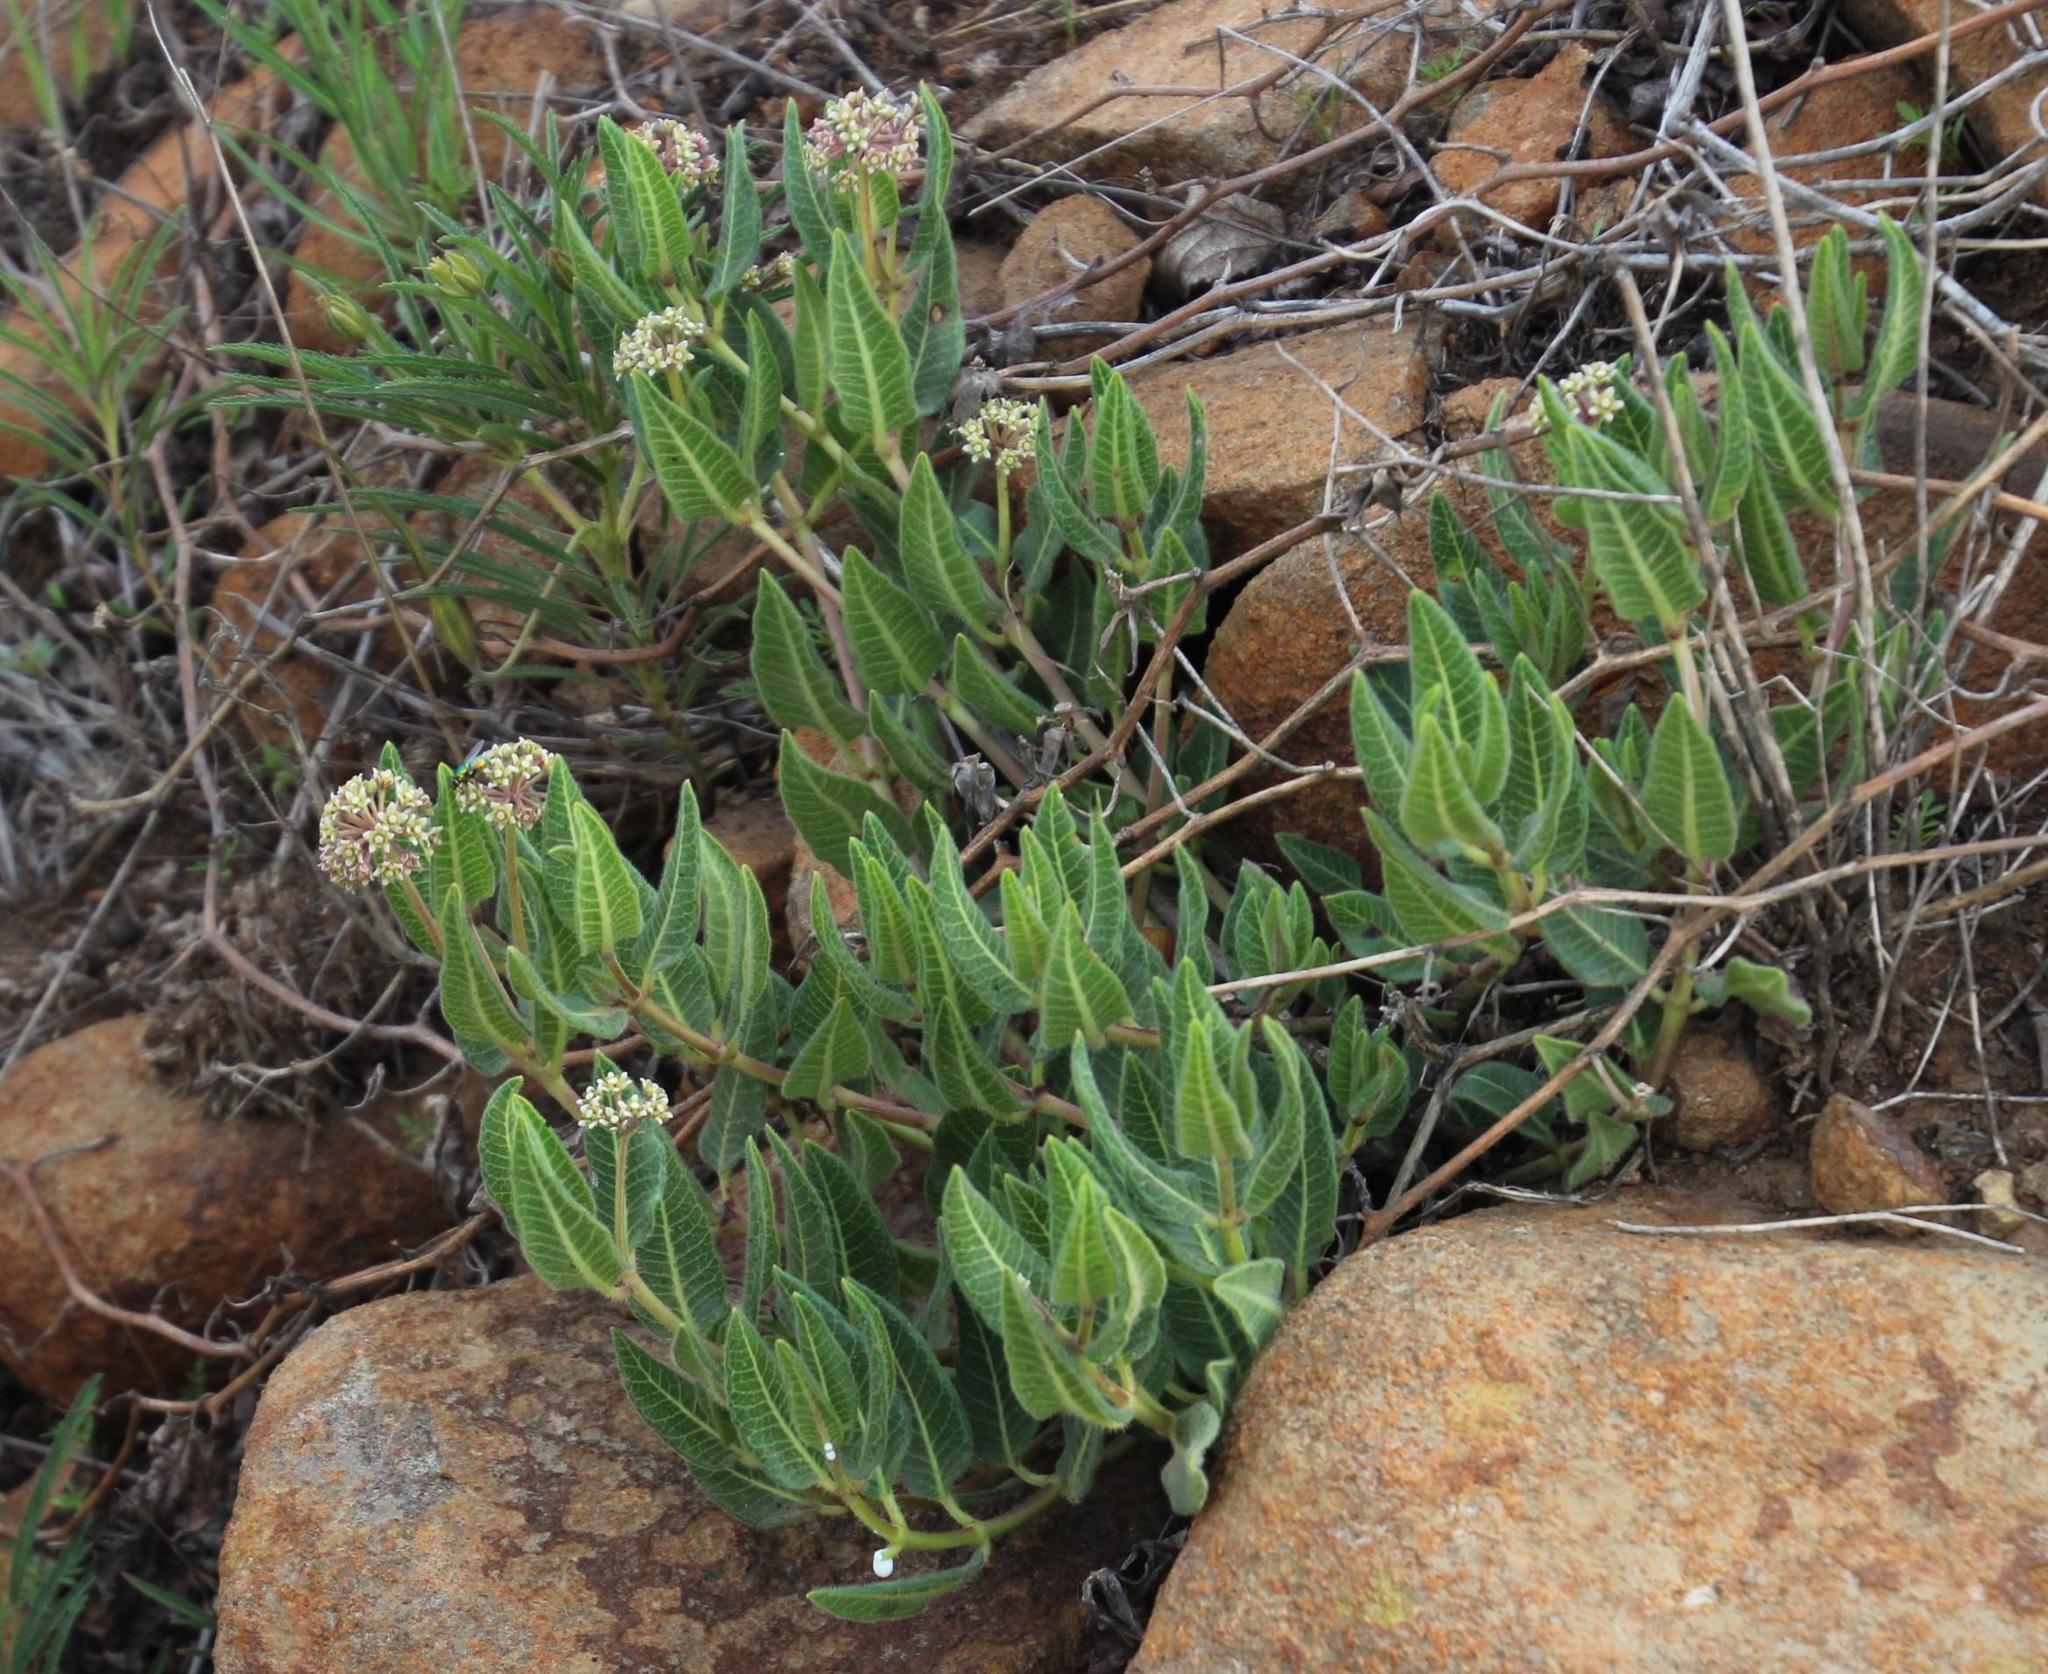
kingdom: Plantae
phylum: Tracheophyta
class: Magnoliopsida
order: Gentianales
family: Apocynaceae
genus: Xysmalobium
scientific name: Xysmalobium parviflorum
